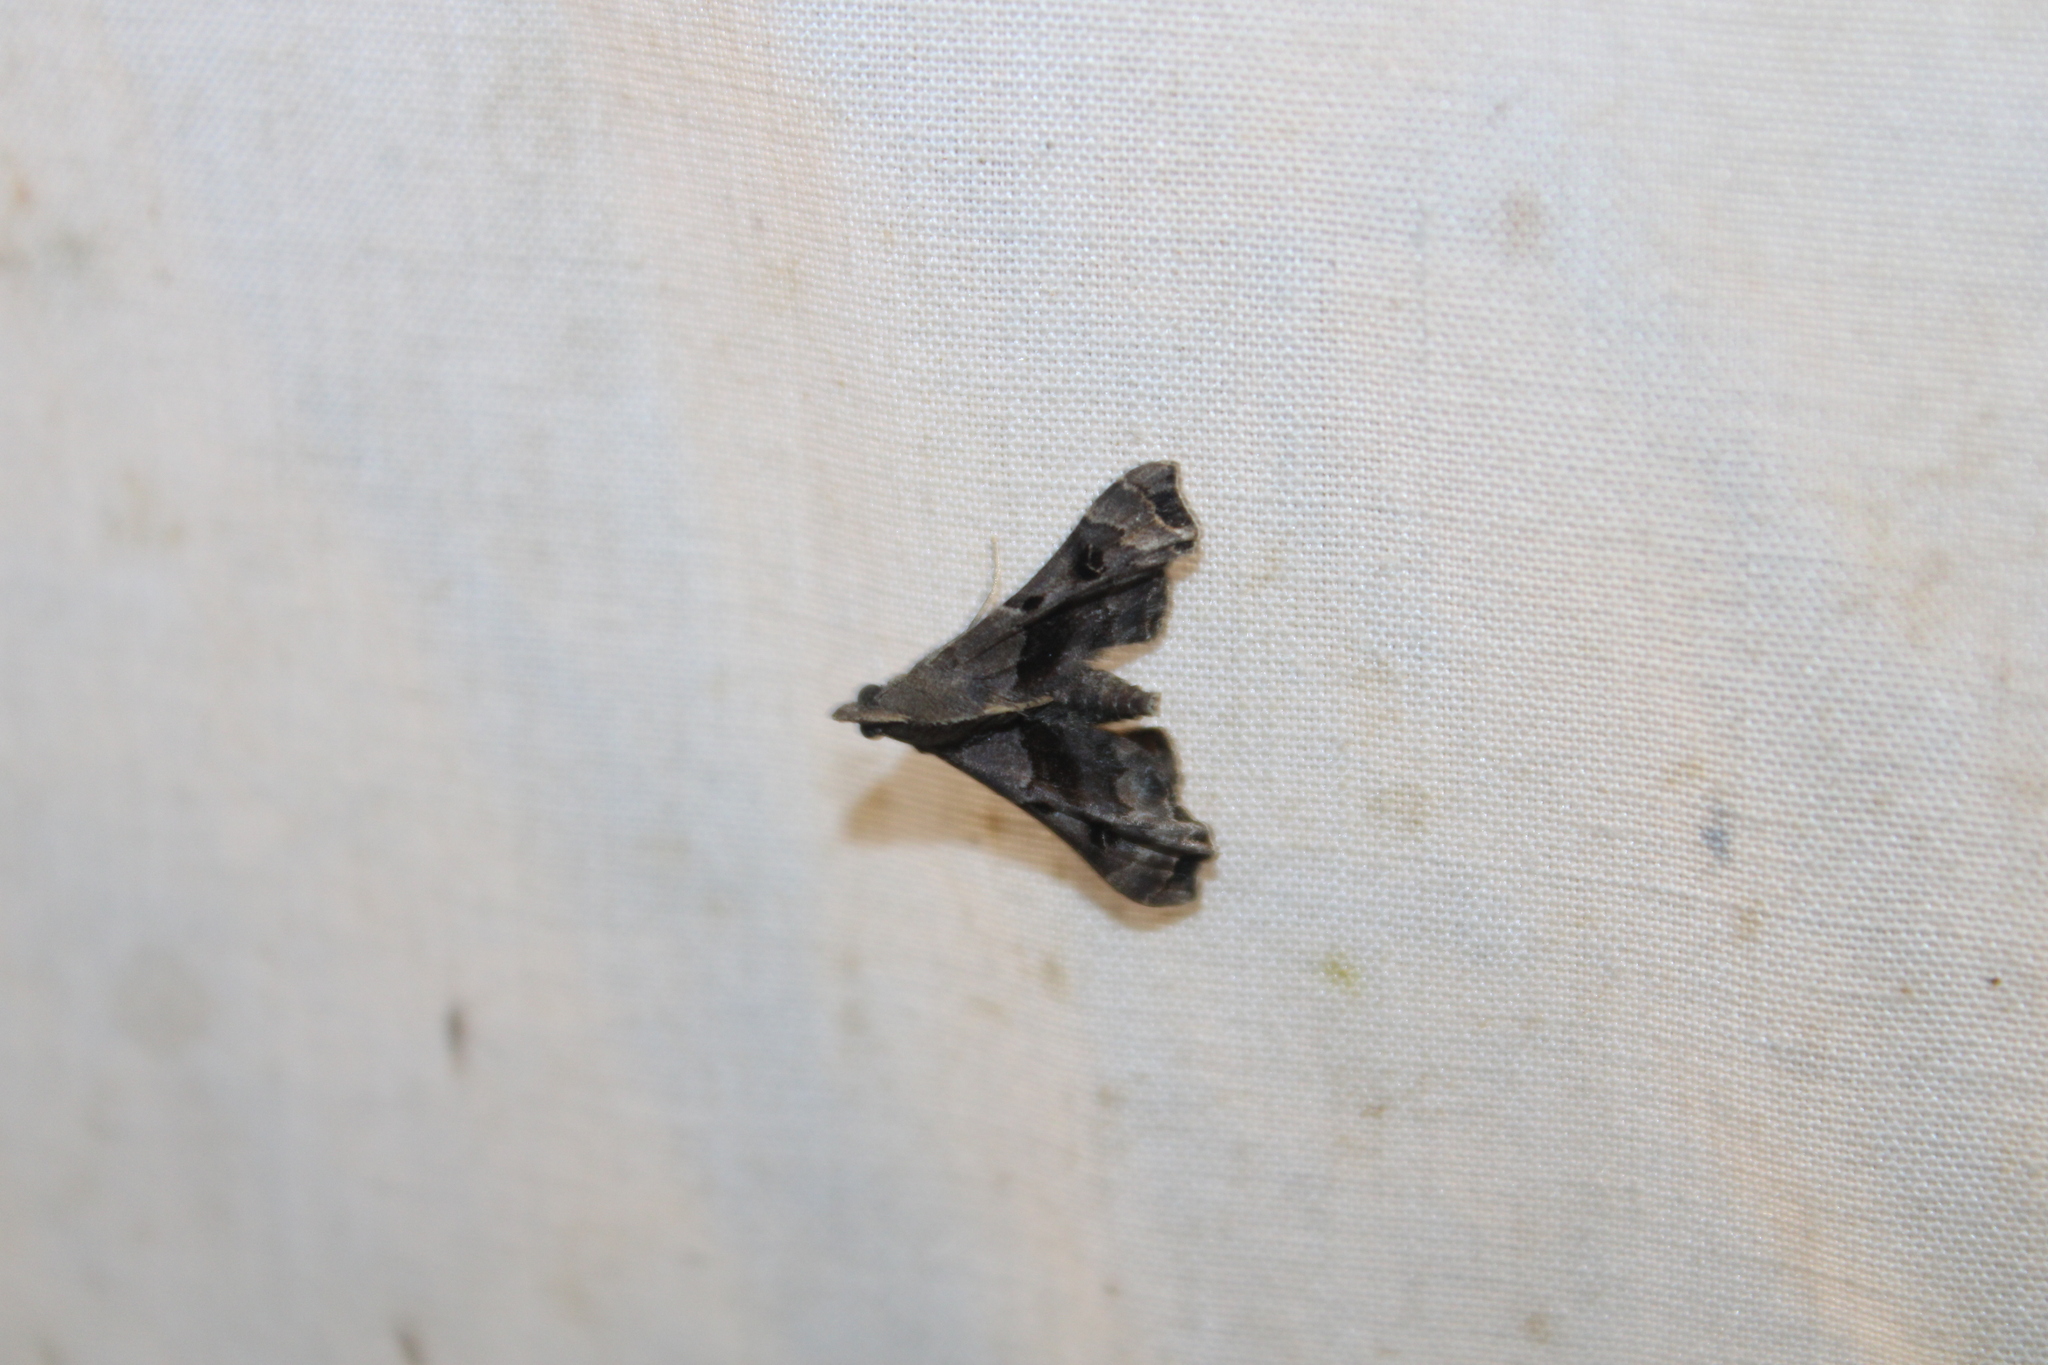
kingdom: Animalia
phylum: Arthropoda
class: Insecta
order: Lepidoptera
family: Erebidae
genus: Palthis
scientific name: Palthis asopialis
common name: Faint-spotted palthis moth
